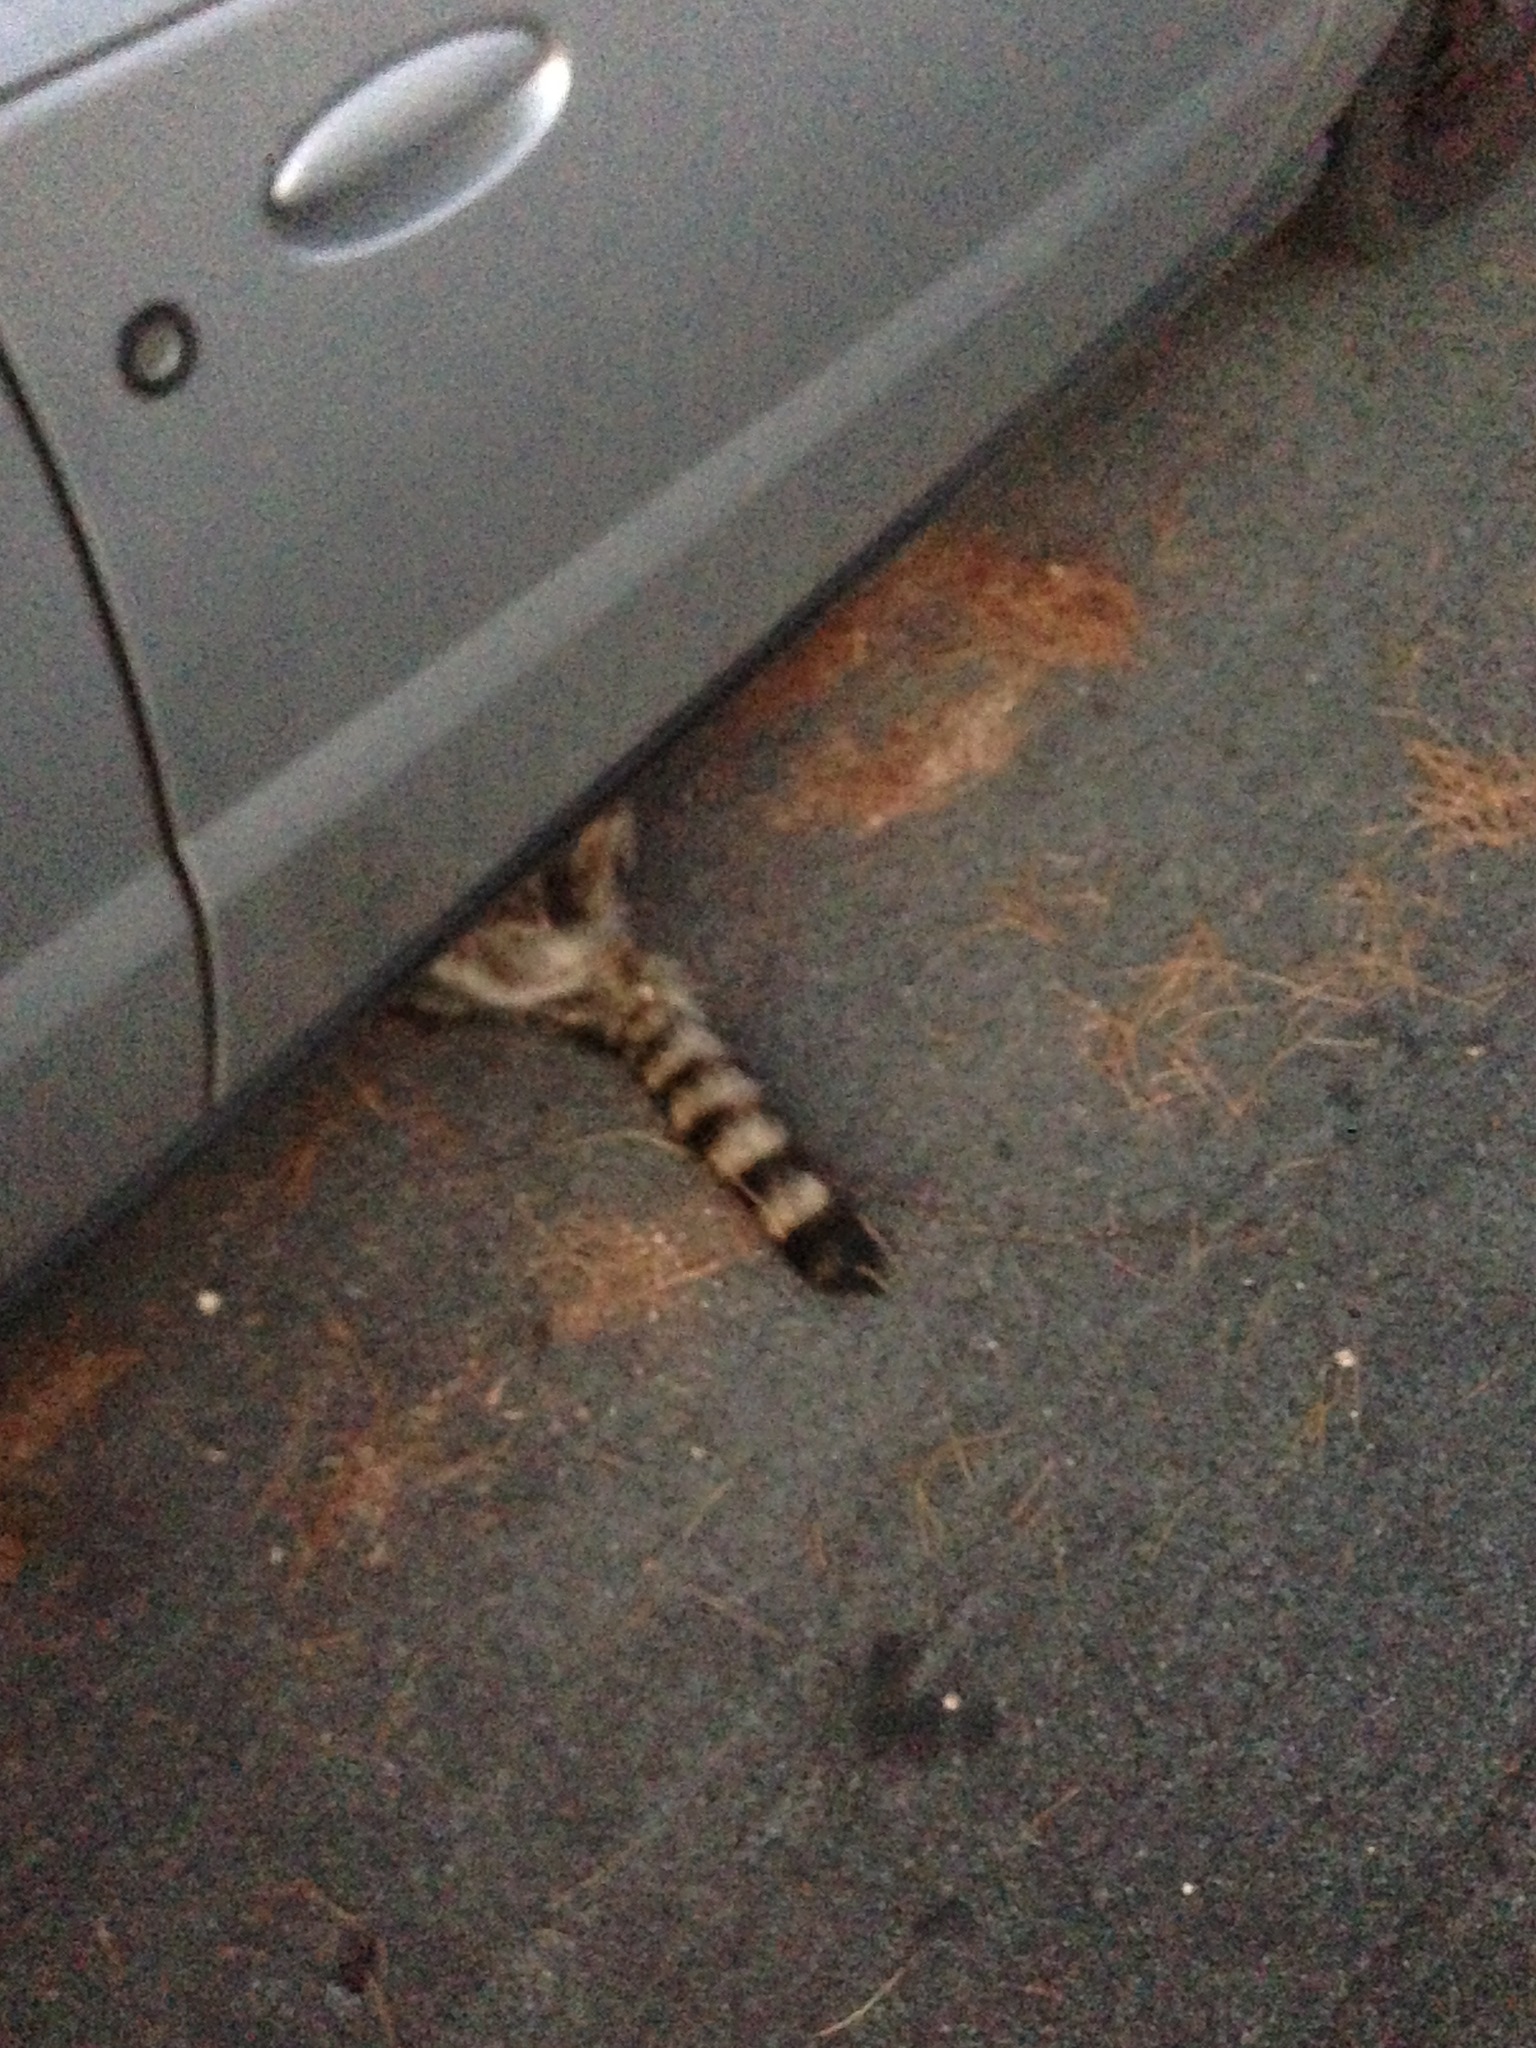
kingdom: Animalia
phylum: Chordata
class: Mammalia
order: Carnivora
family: Procyonidae
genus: Procyon
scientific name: Procyon lotor
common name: Raccoon
